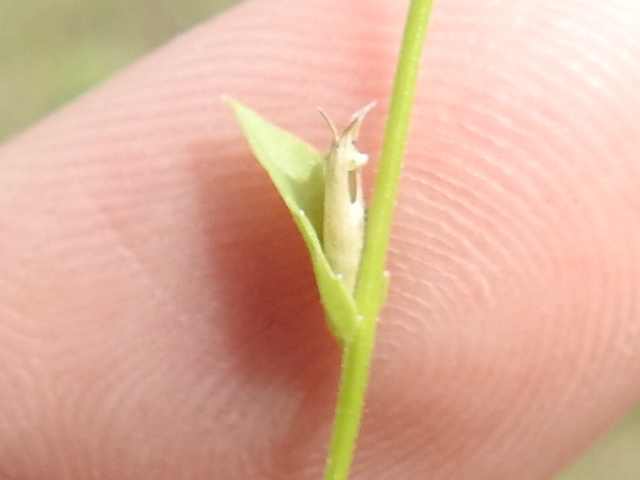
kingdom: Plantae
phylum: Tracheophyta
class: Magnoliopsida
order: Asterales
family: Campanulaceae
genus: Triodanis
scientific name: Triodanis biflora
